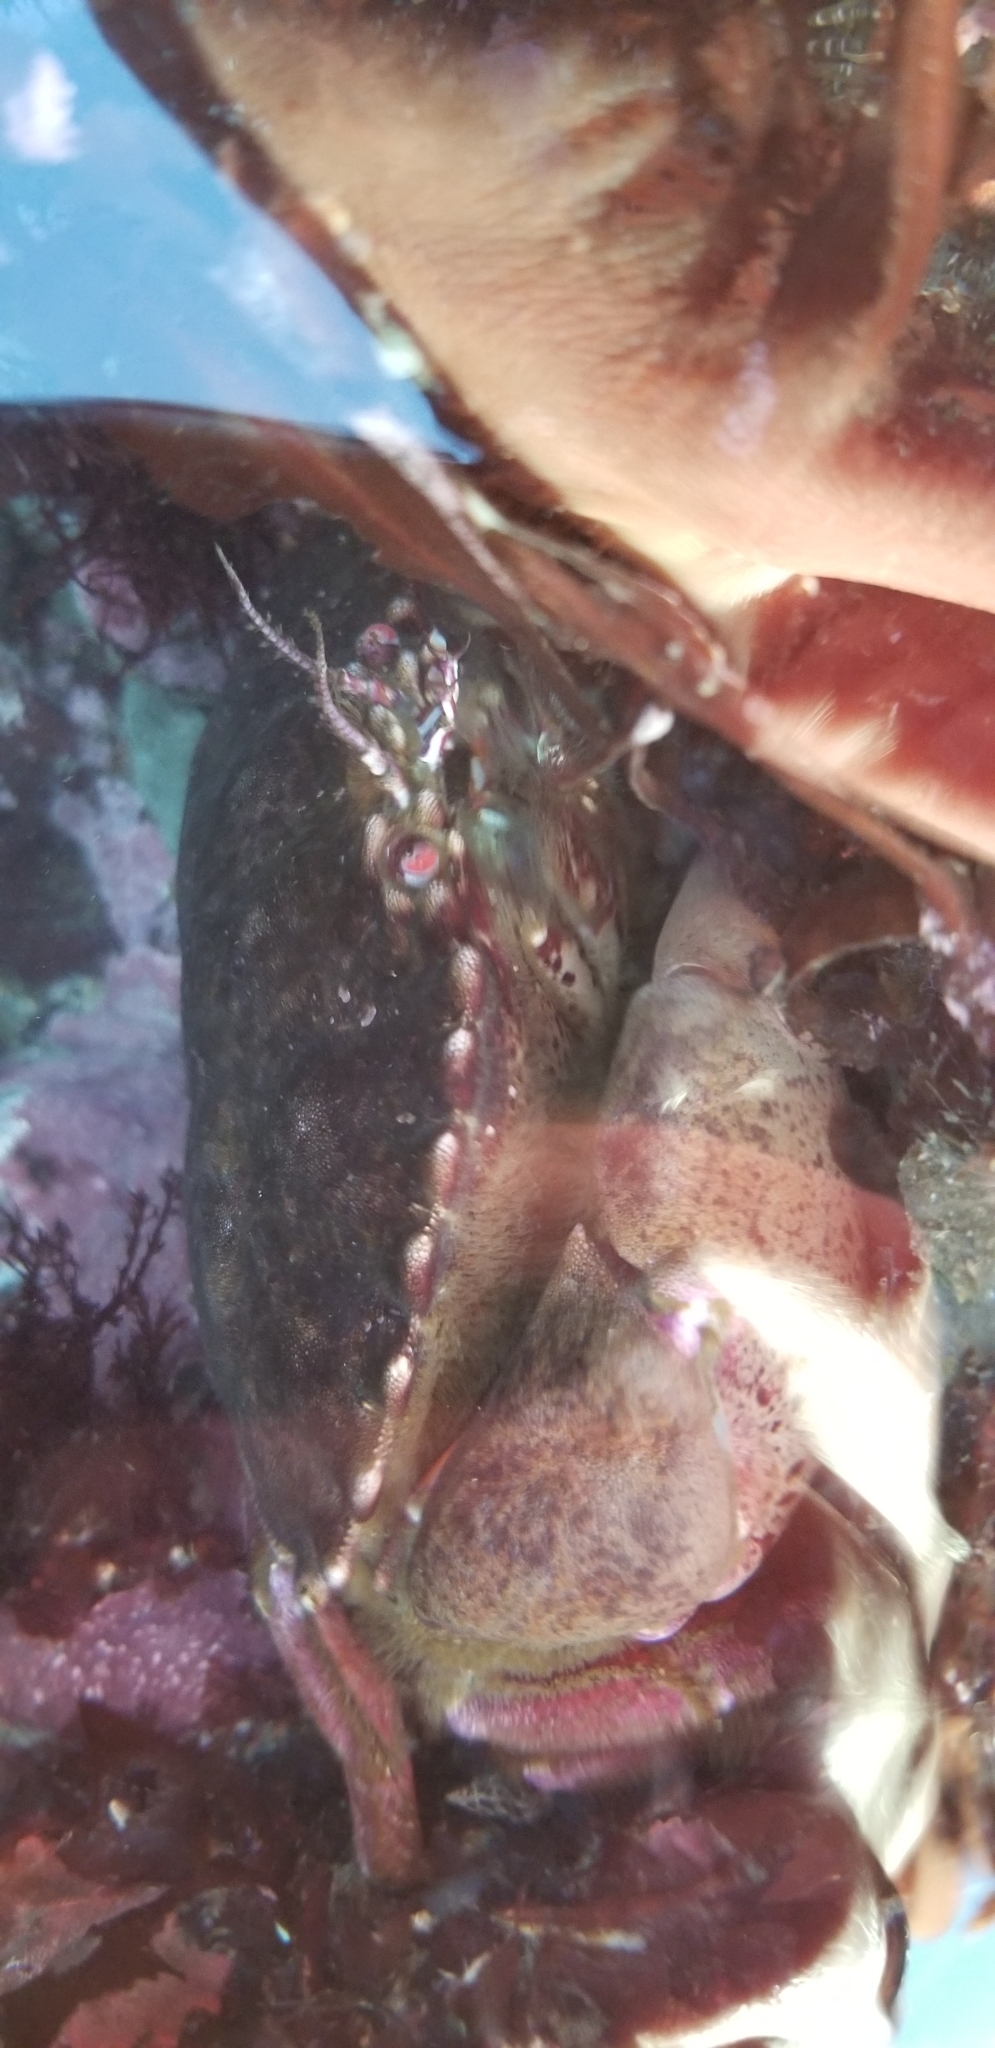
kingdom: Animalia
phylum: Arthropoda
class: Malacostraca
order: Decapoda
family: Cancridae
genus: Romaleon
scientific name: Romaleon antennarium
